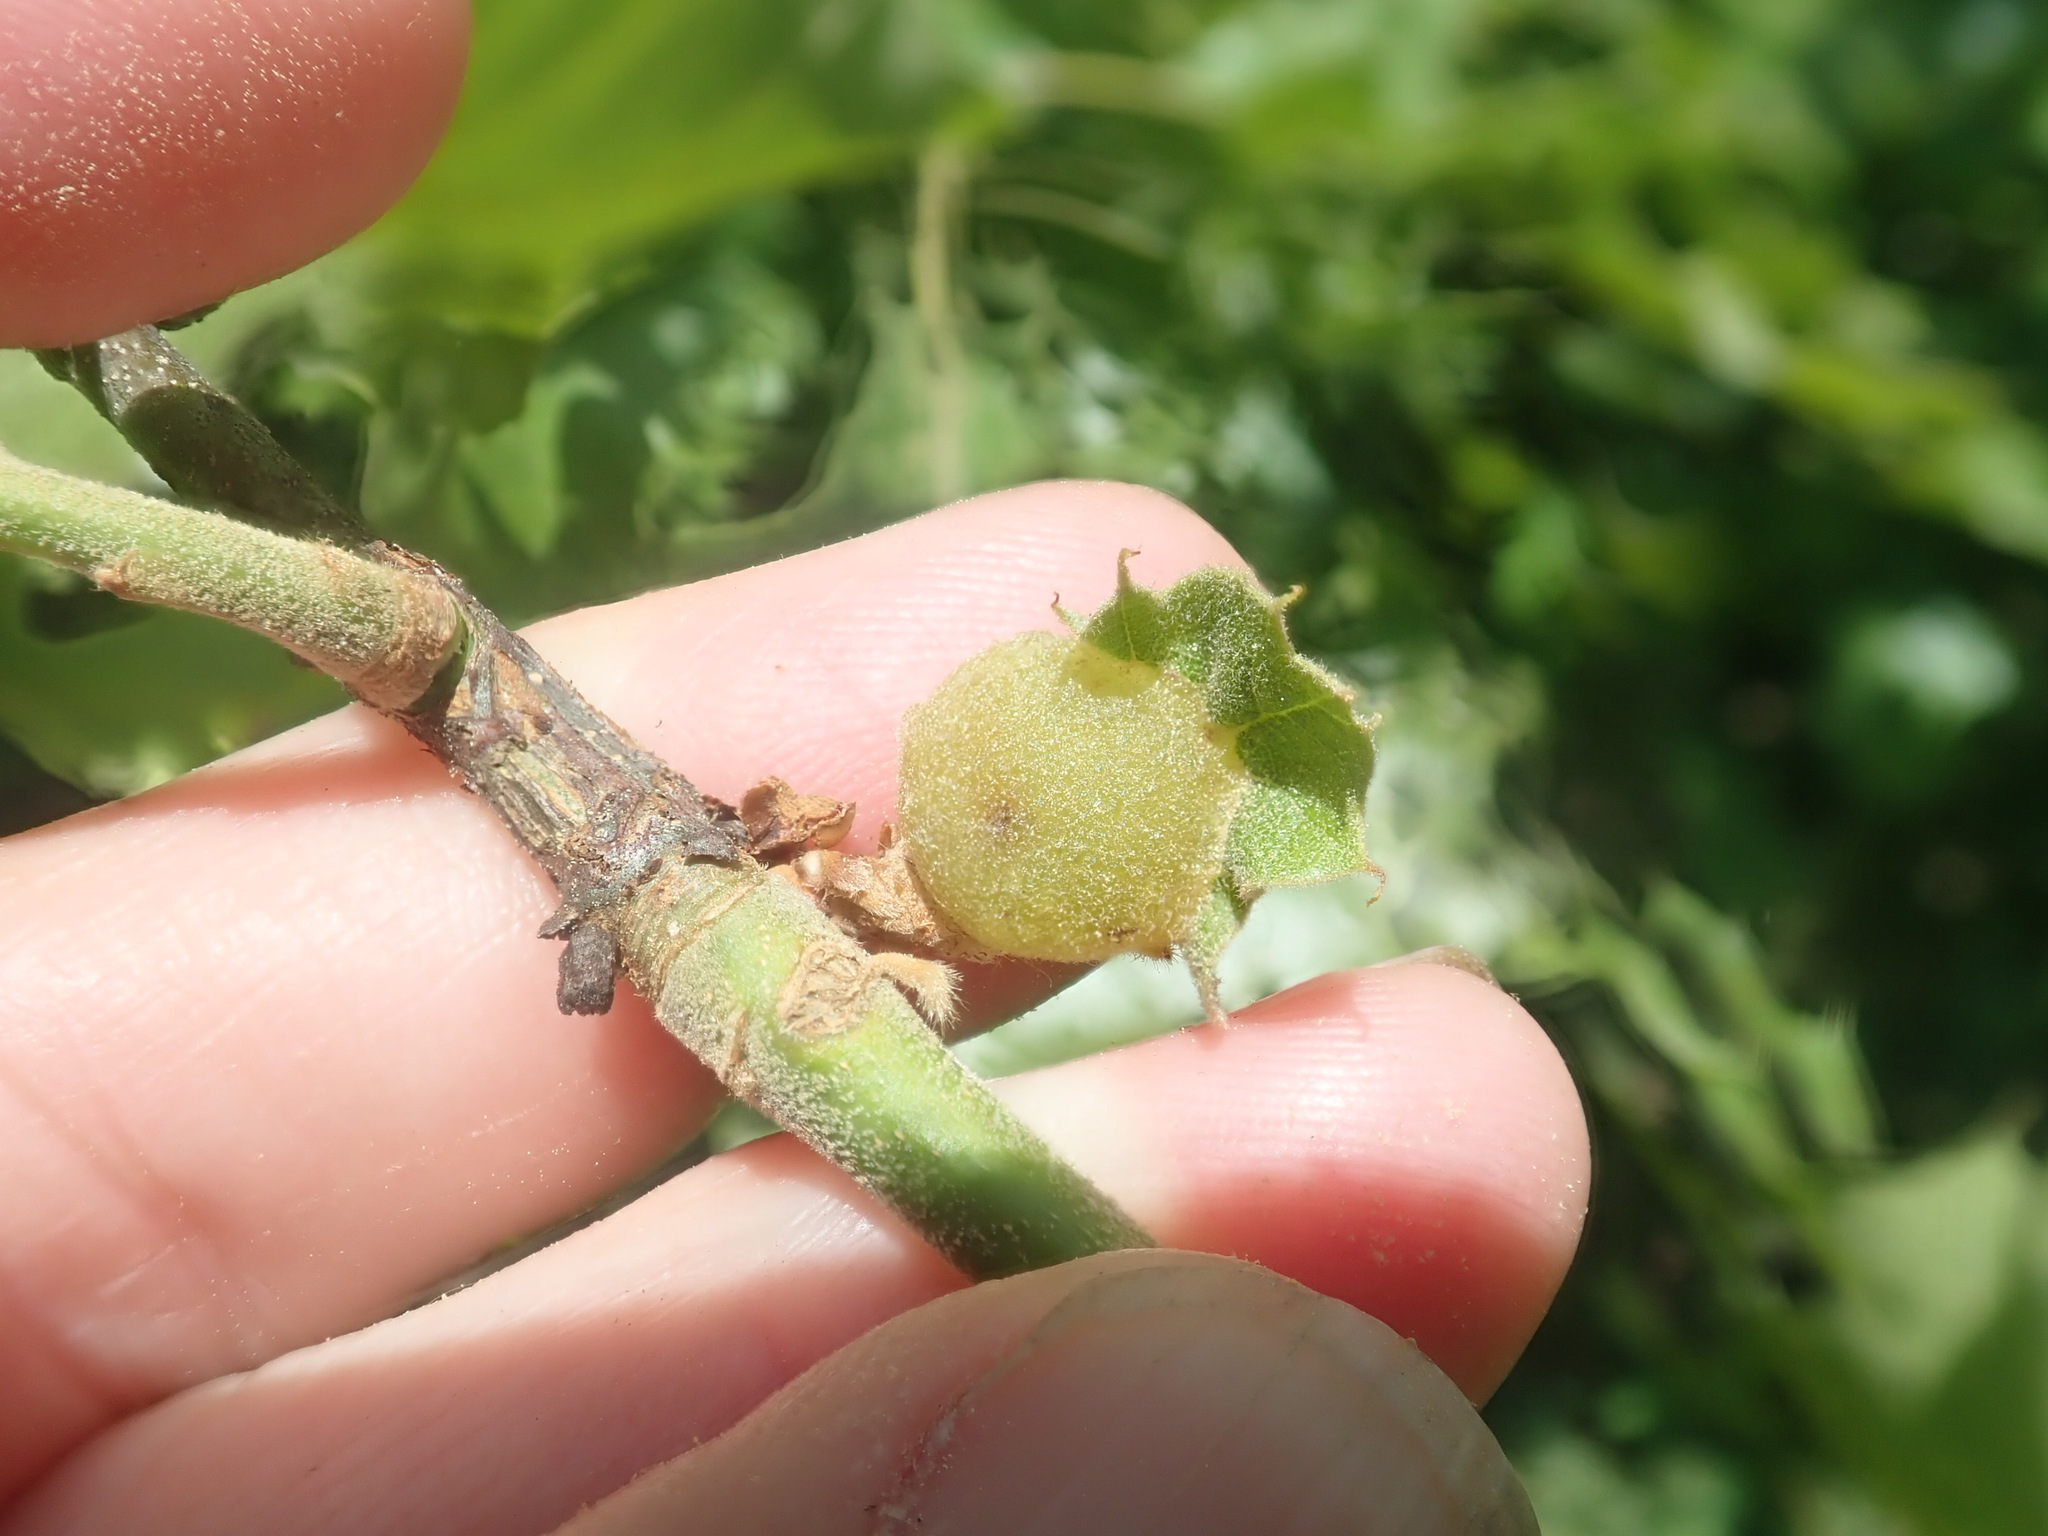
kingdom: Animalia
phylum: Arthropoda
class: Insecta
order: Hymenoptera
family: Cynipidae
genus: Dryocosmus
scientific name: Dryocosmus quercuspalustris
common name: Succulent oak gall wasp
